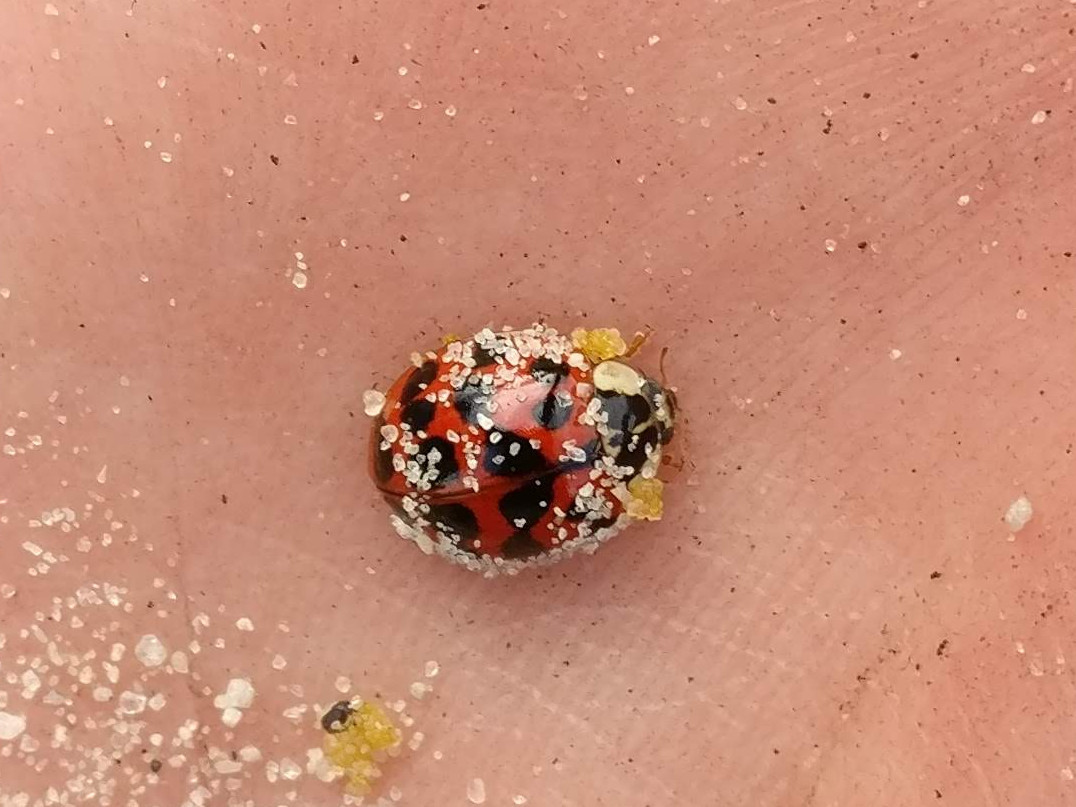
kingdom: Animalia
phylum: Arthropoda
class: Insecta
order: Coleoptera
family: Coccinellidae
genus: Harmonia
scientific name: Harmonia axyridis
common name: Harlequin ladybird
